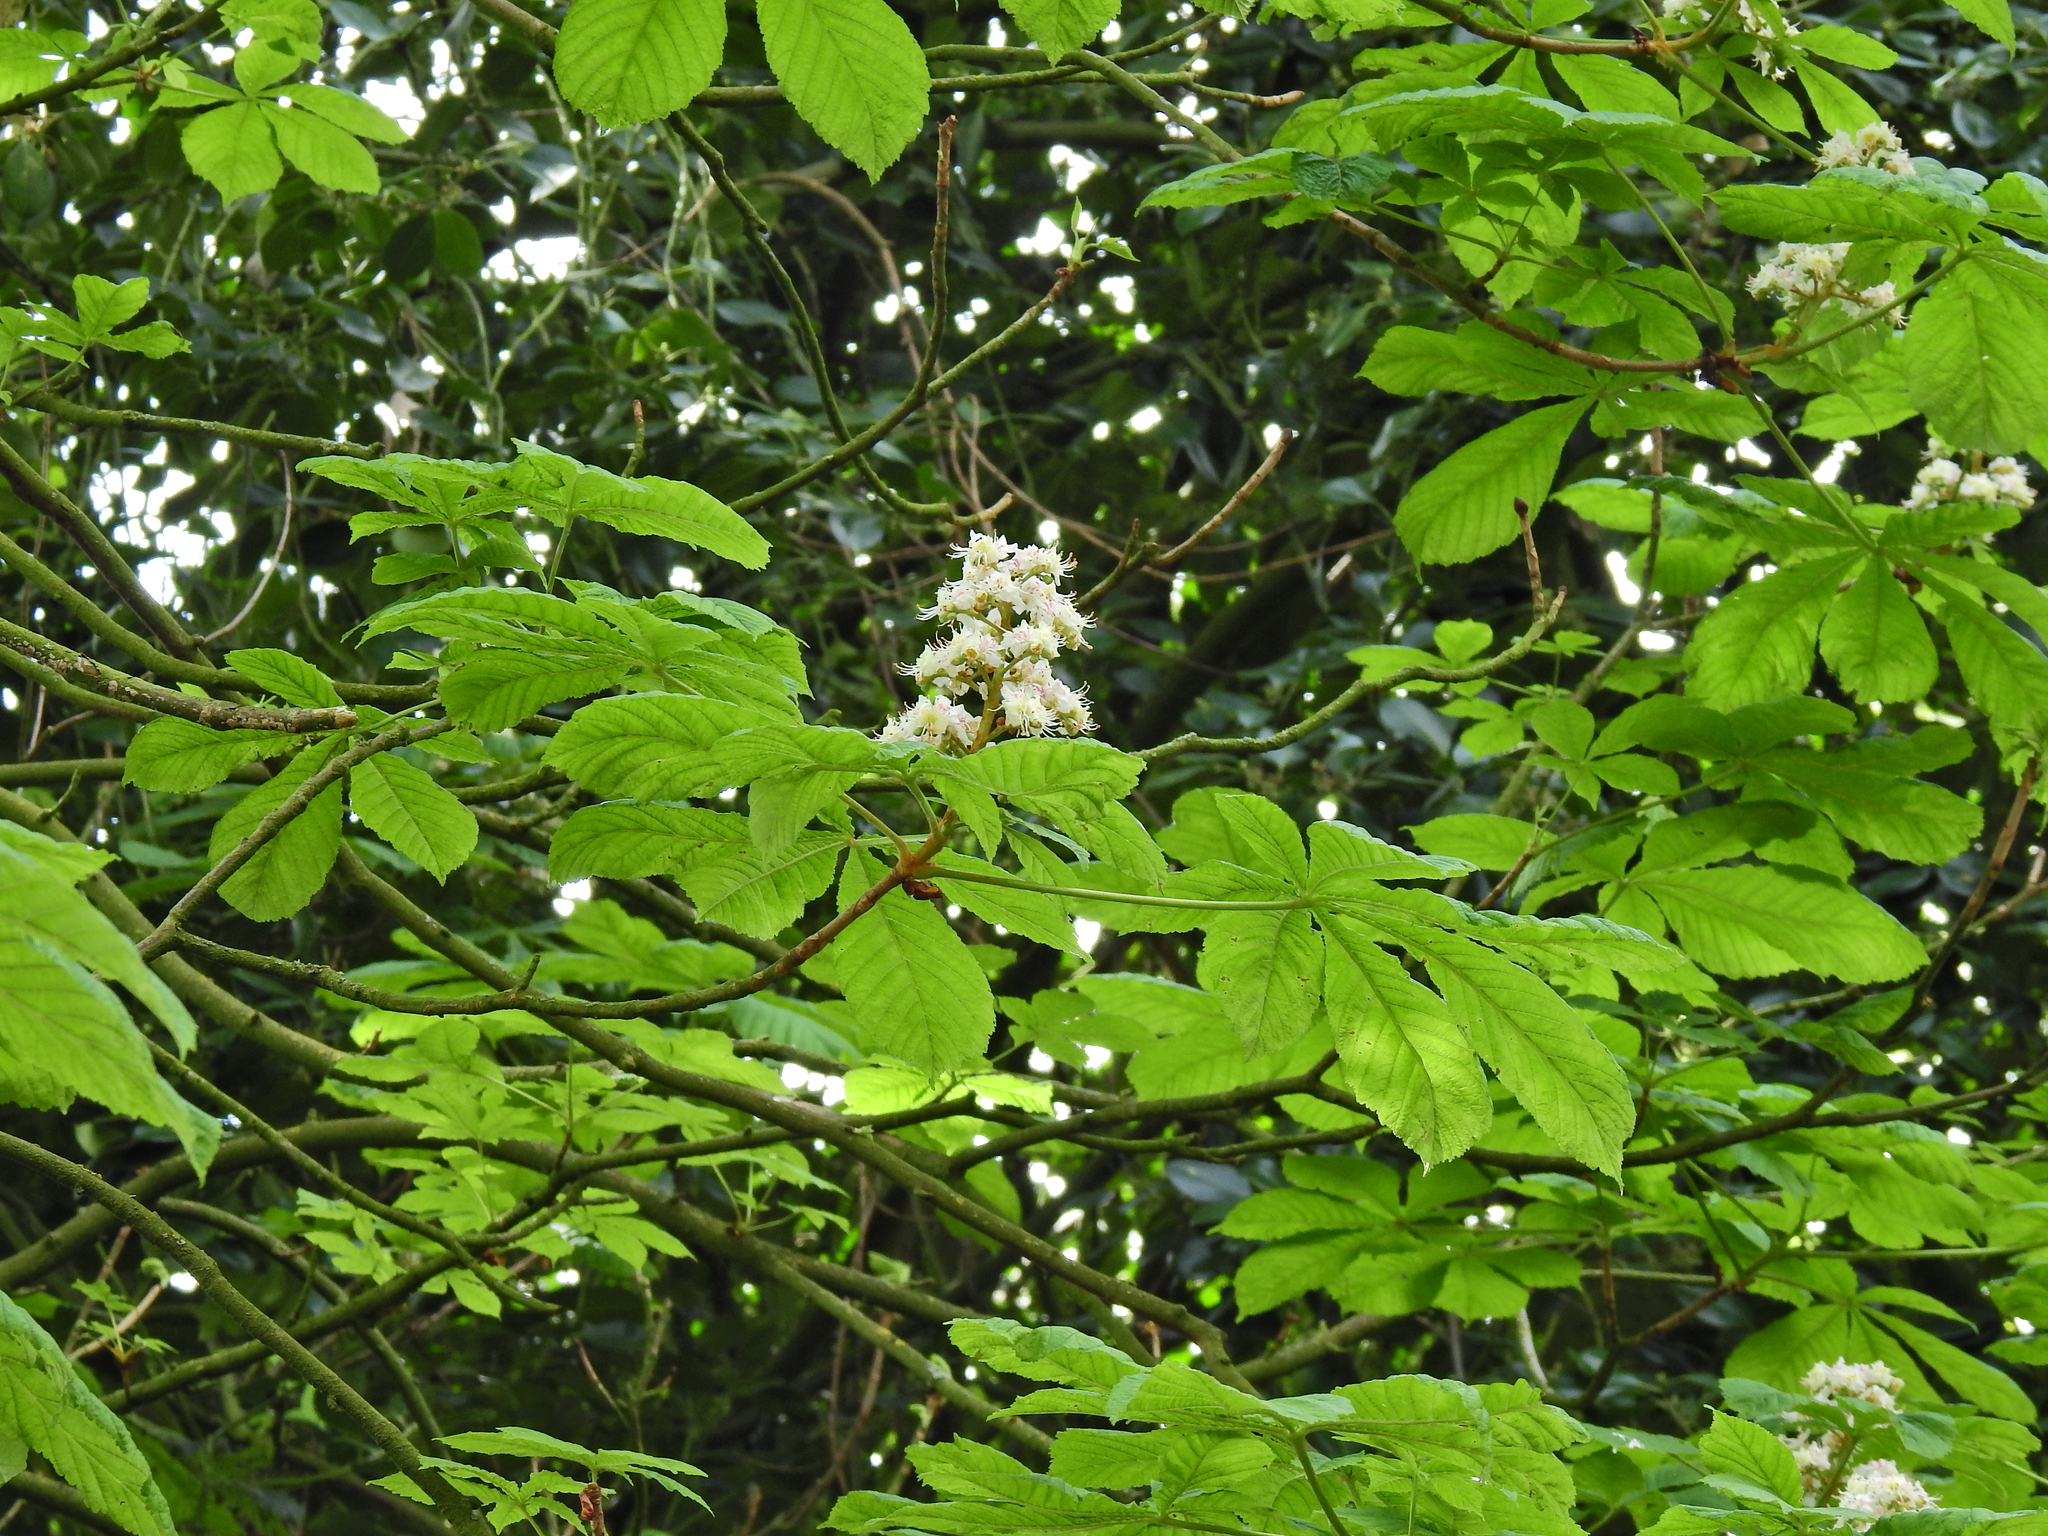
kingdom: Plantae
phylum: Tracheophyta
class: Magnoliopsida
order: Sapindales
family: Sapindaceae
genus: Aesculus
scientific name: Aesculus hippocastanum
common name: Horse-chestnut
